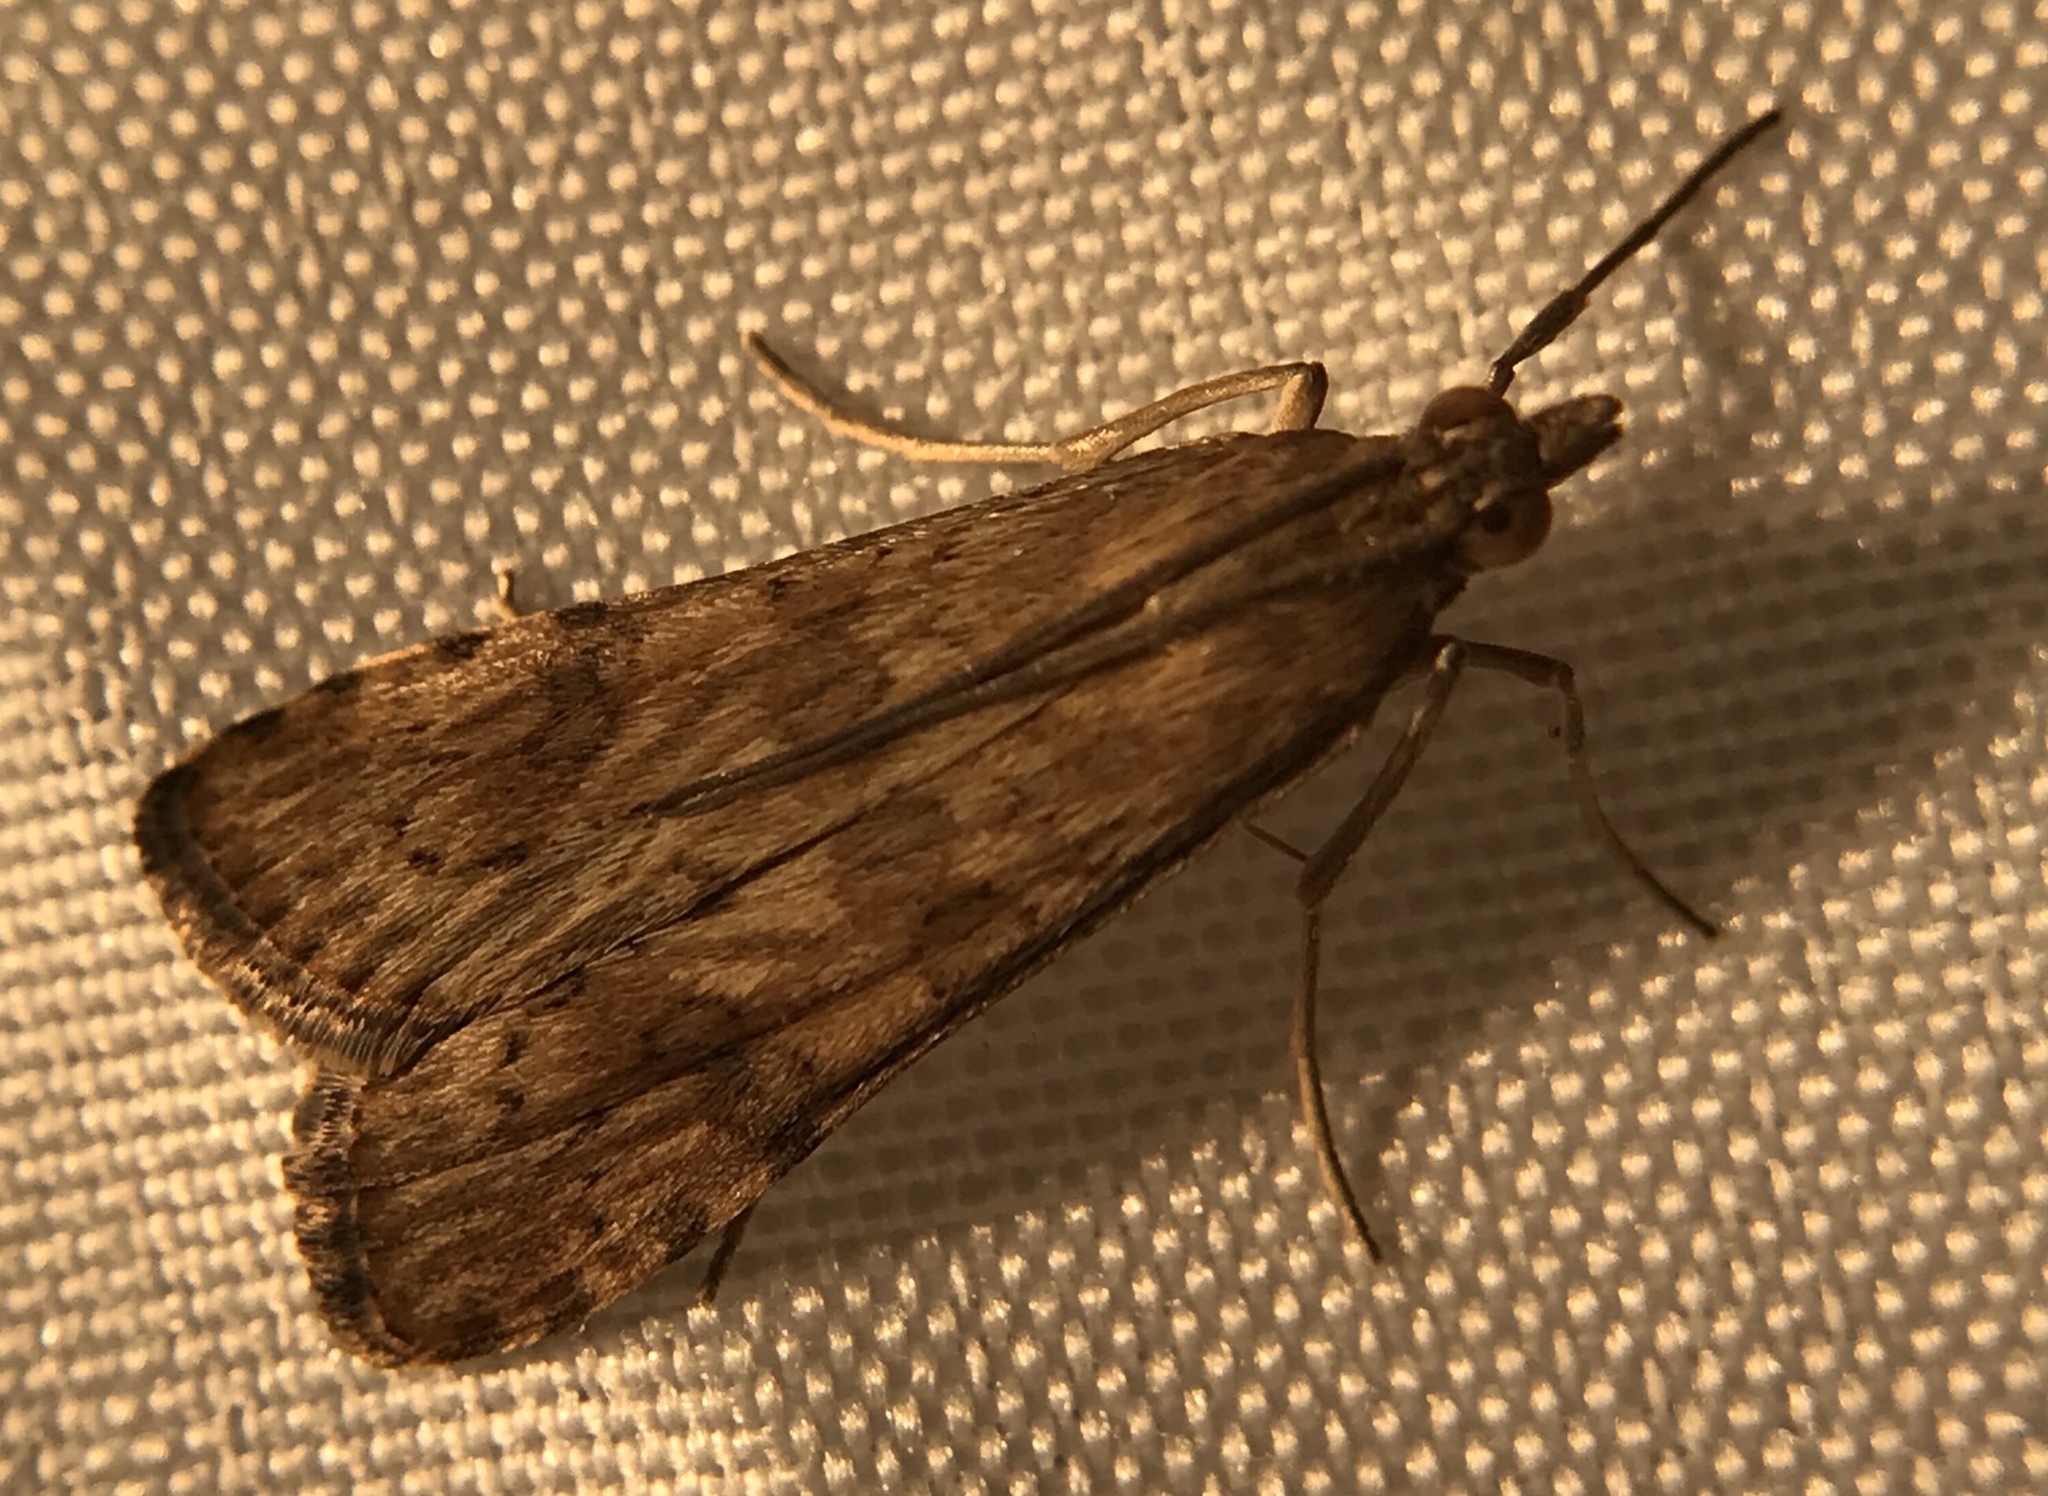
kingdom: Animalia
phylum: Arthropoda
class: Insecta
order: Lepidoptera
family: Crambidae
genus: Nomophila
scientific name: Nomophila nearctica
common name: American rush veneer
